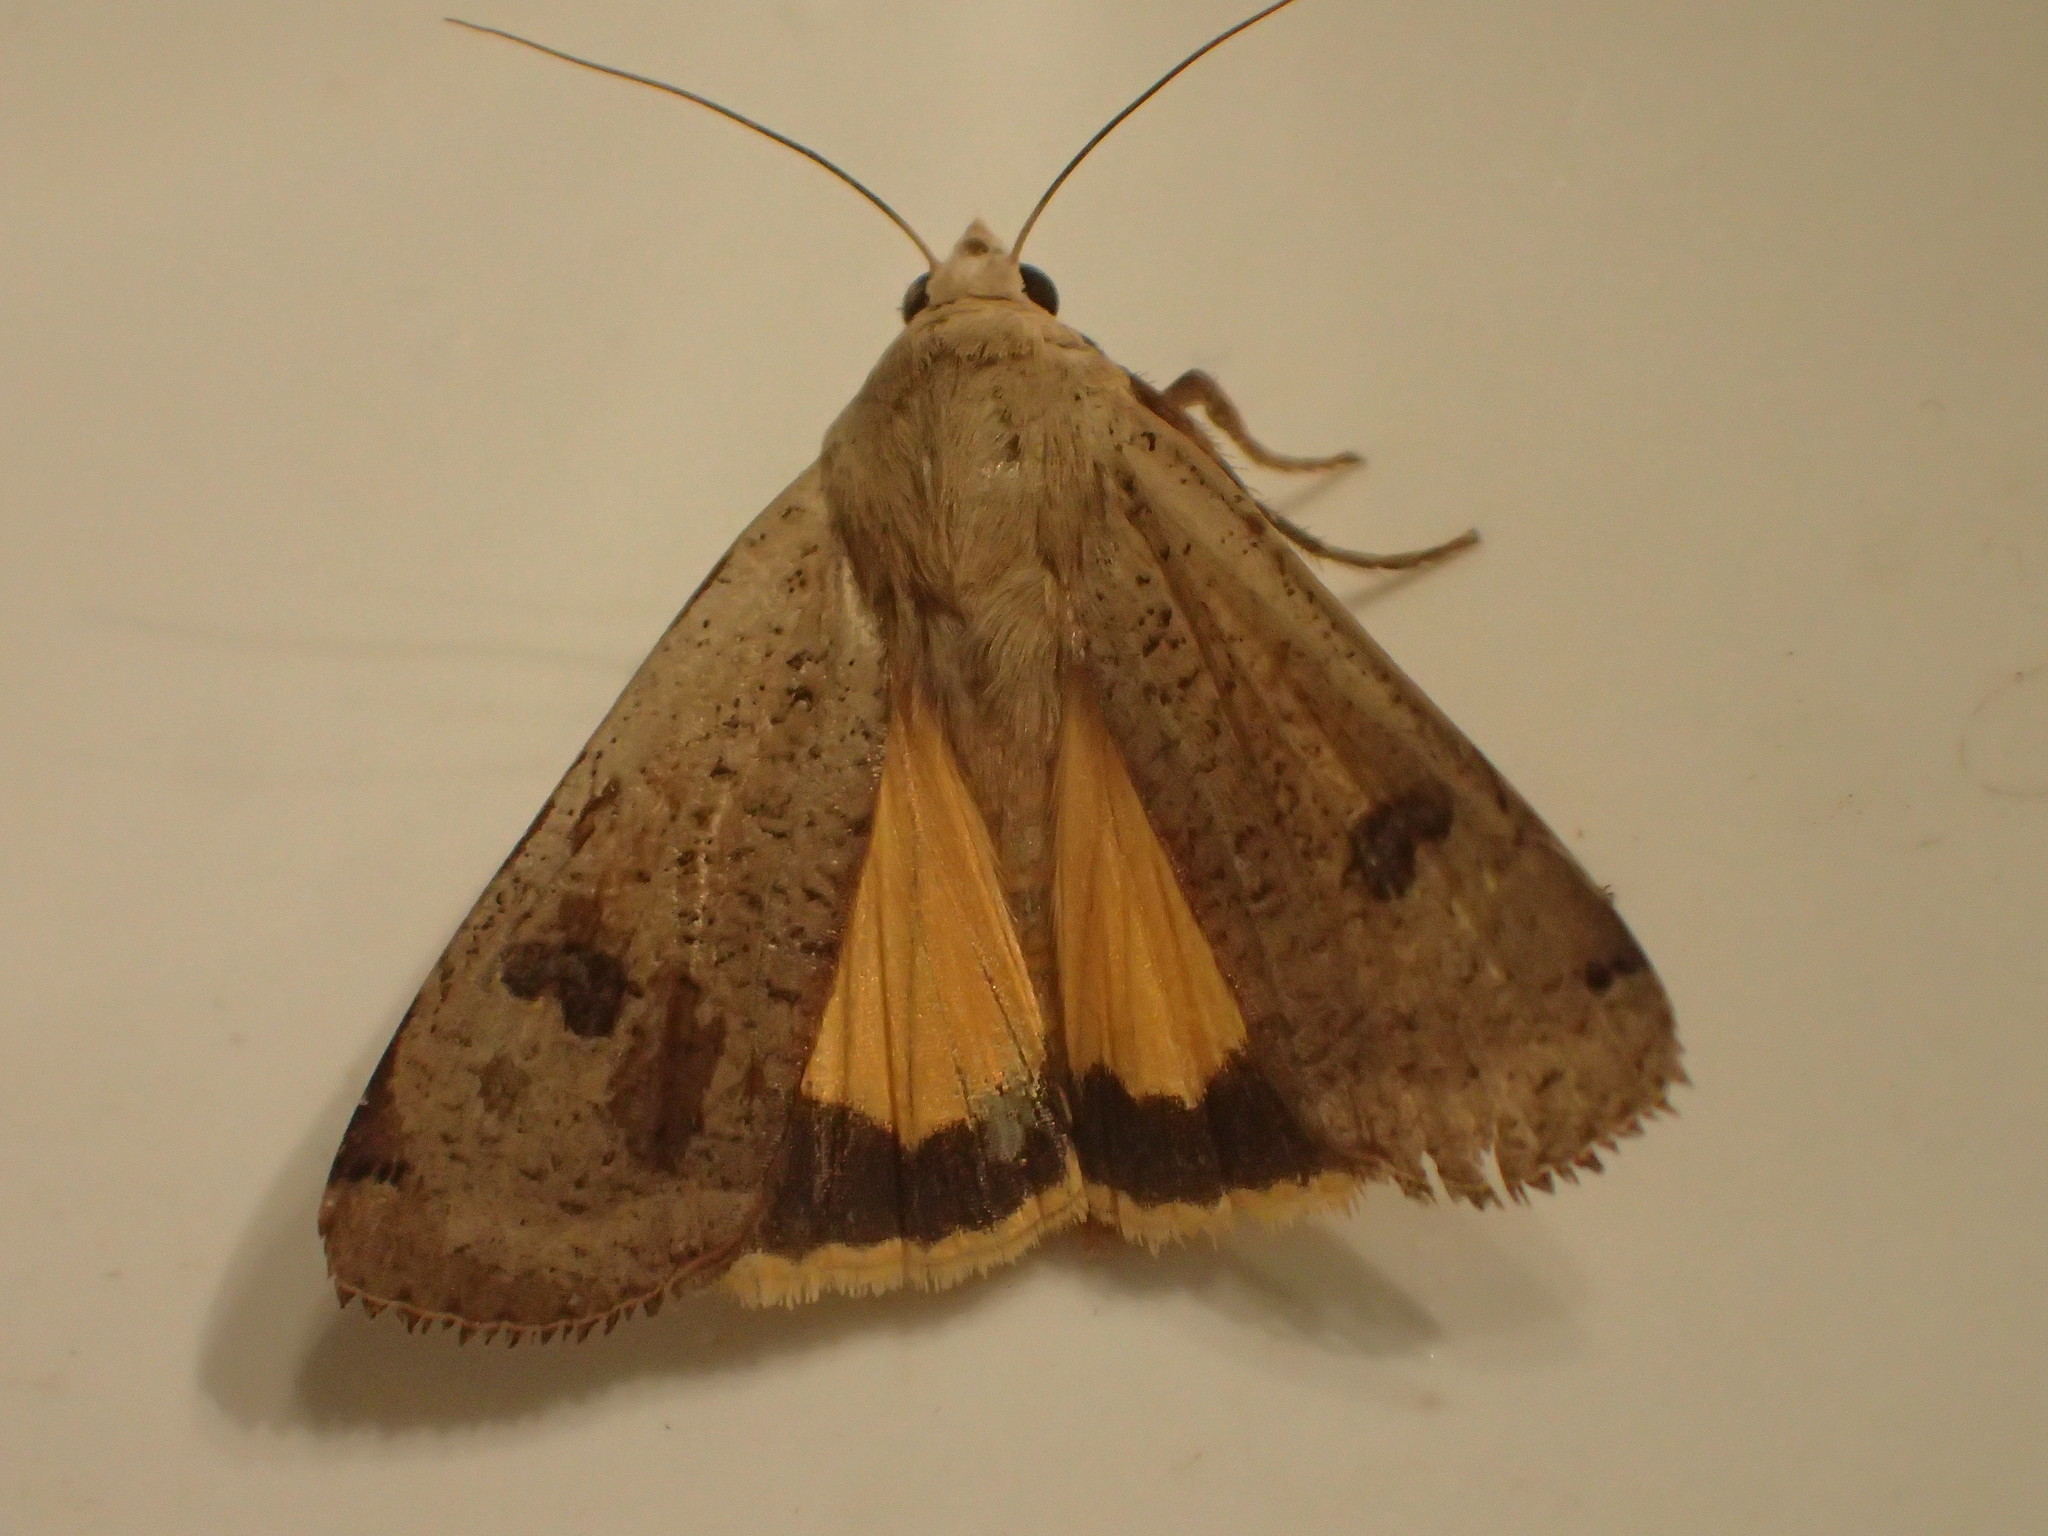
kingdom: Animalia
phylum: Arthropoda
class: Insecta
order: Lepidoptera
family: Noctuidae
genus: Noctua
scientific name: Noctua pronuba
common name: Large yellow underwing
